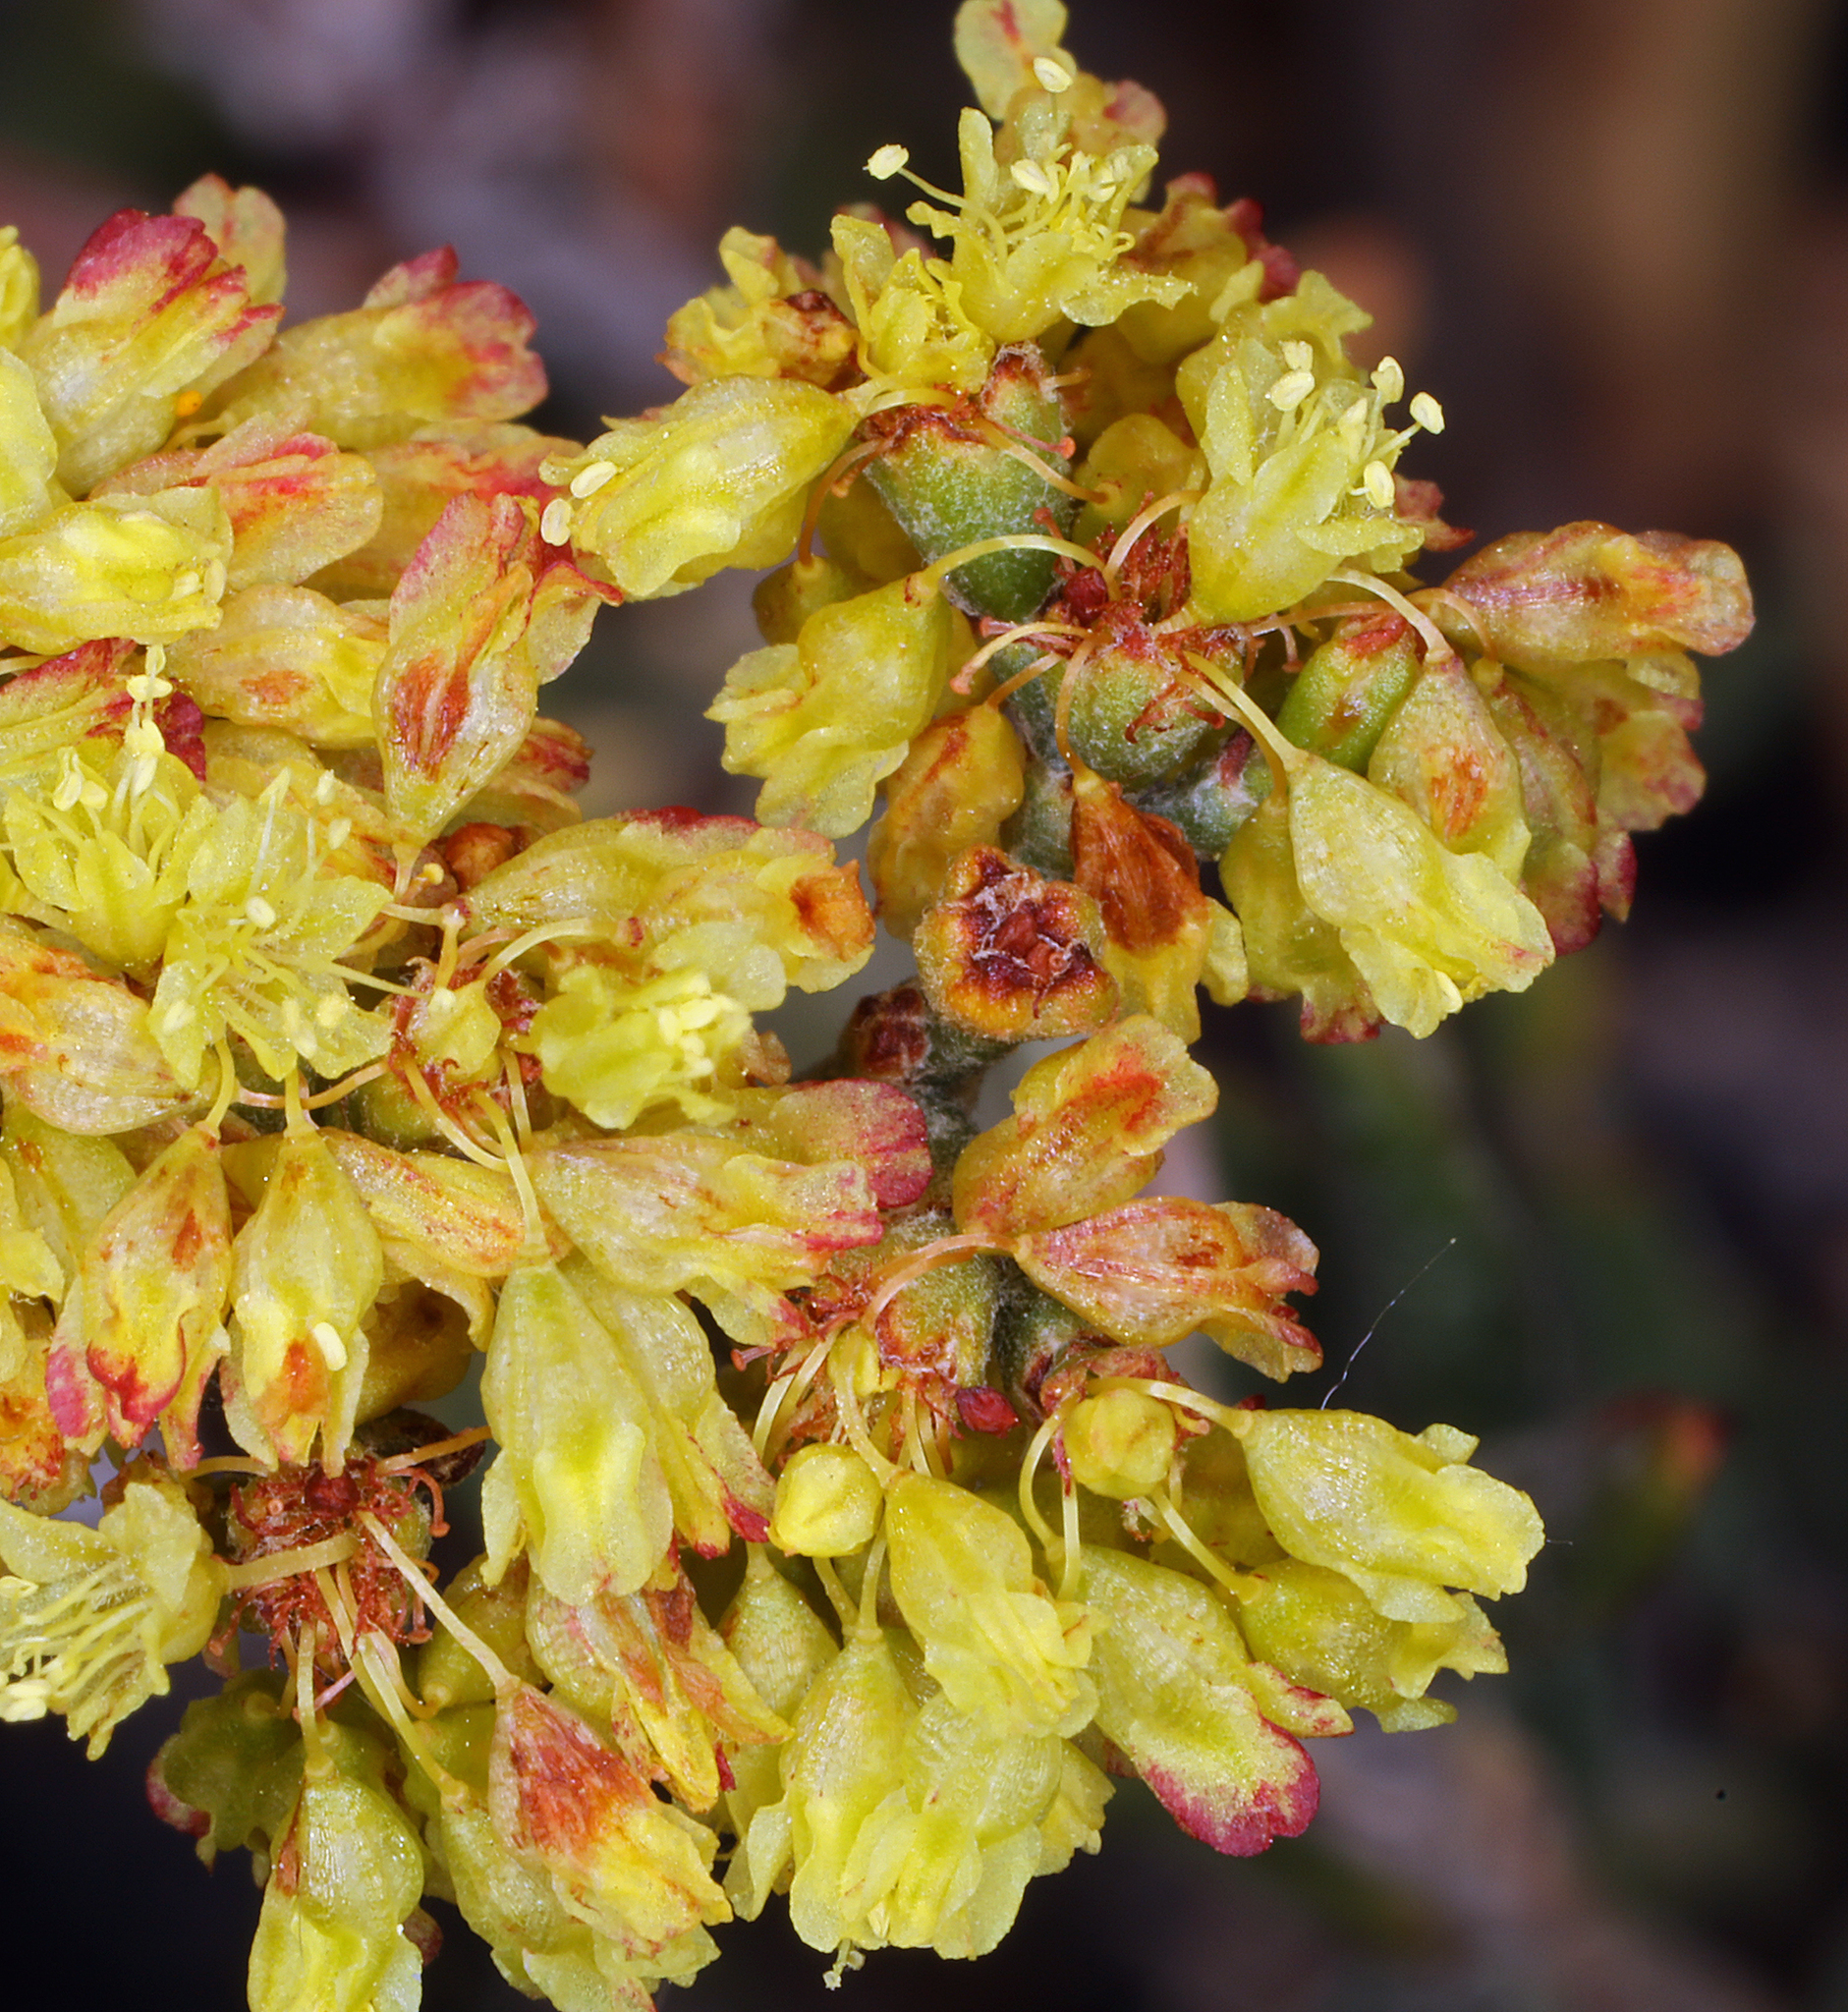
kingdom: Plantae
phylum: Tracheophyta
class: Magnoliopsida
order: Caryophyllales
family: Polygonaceae
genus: Eriogonum
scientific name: Eriogonum microtheca
